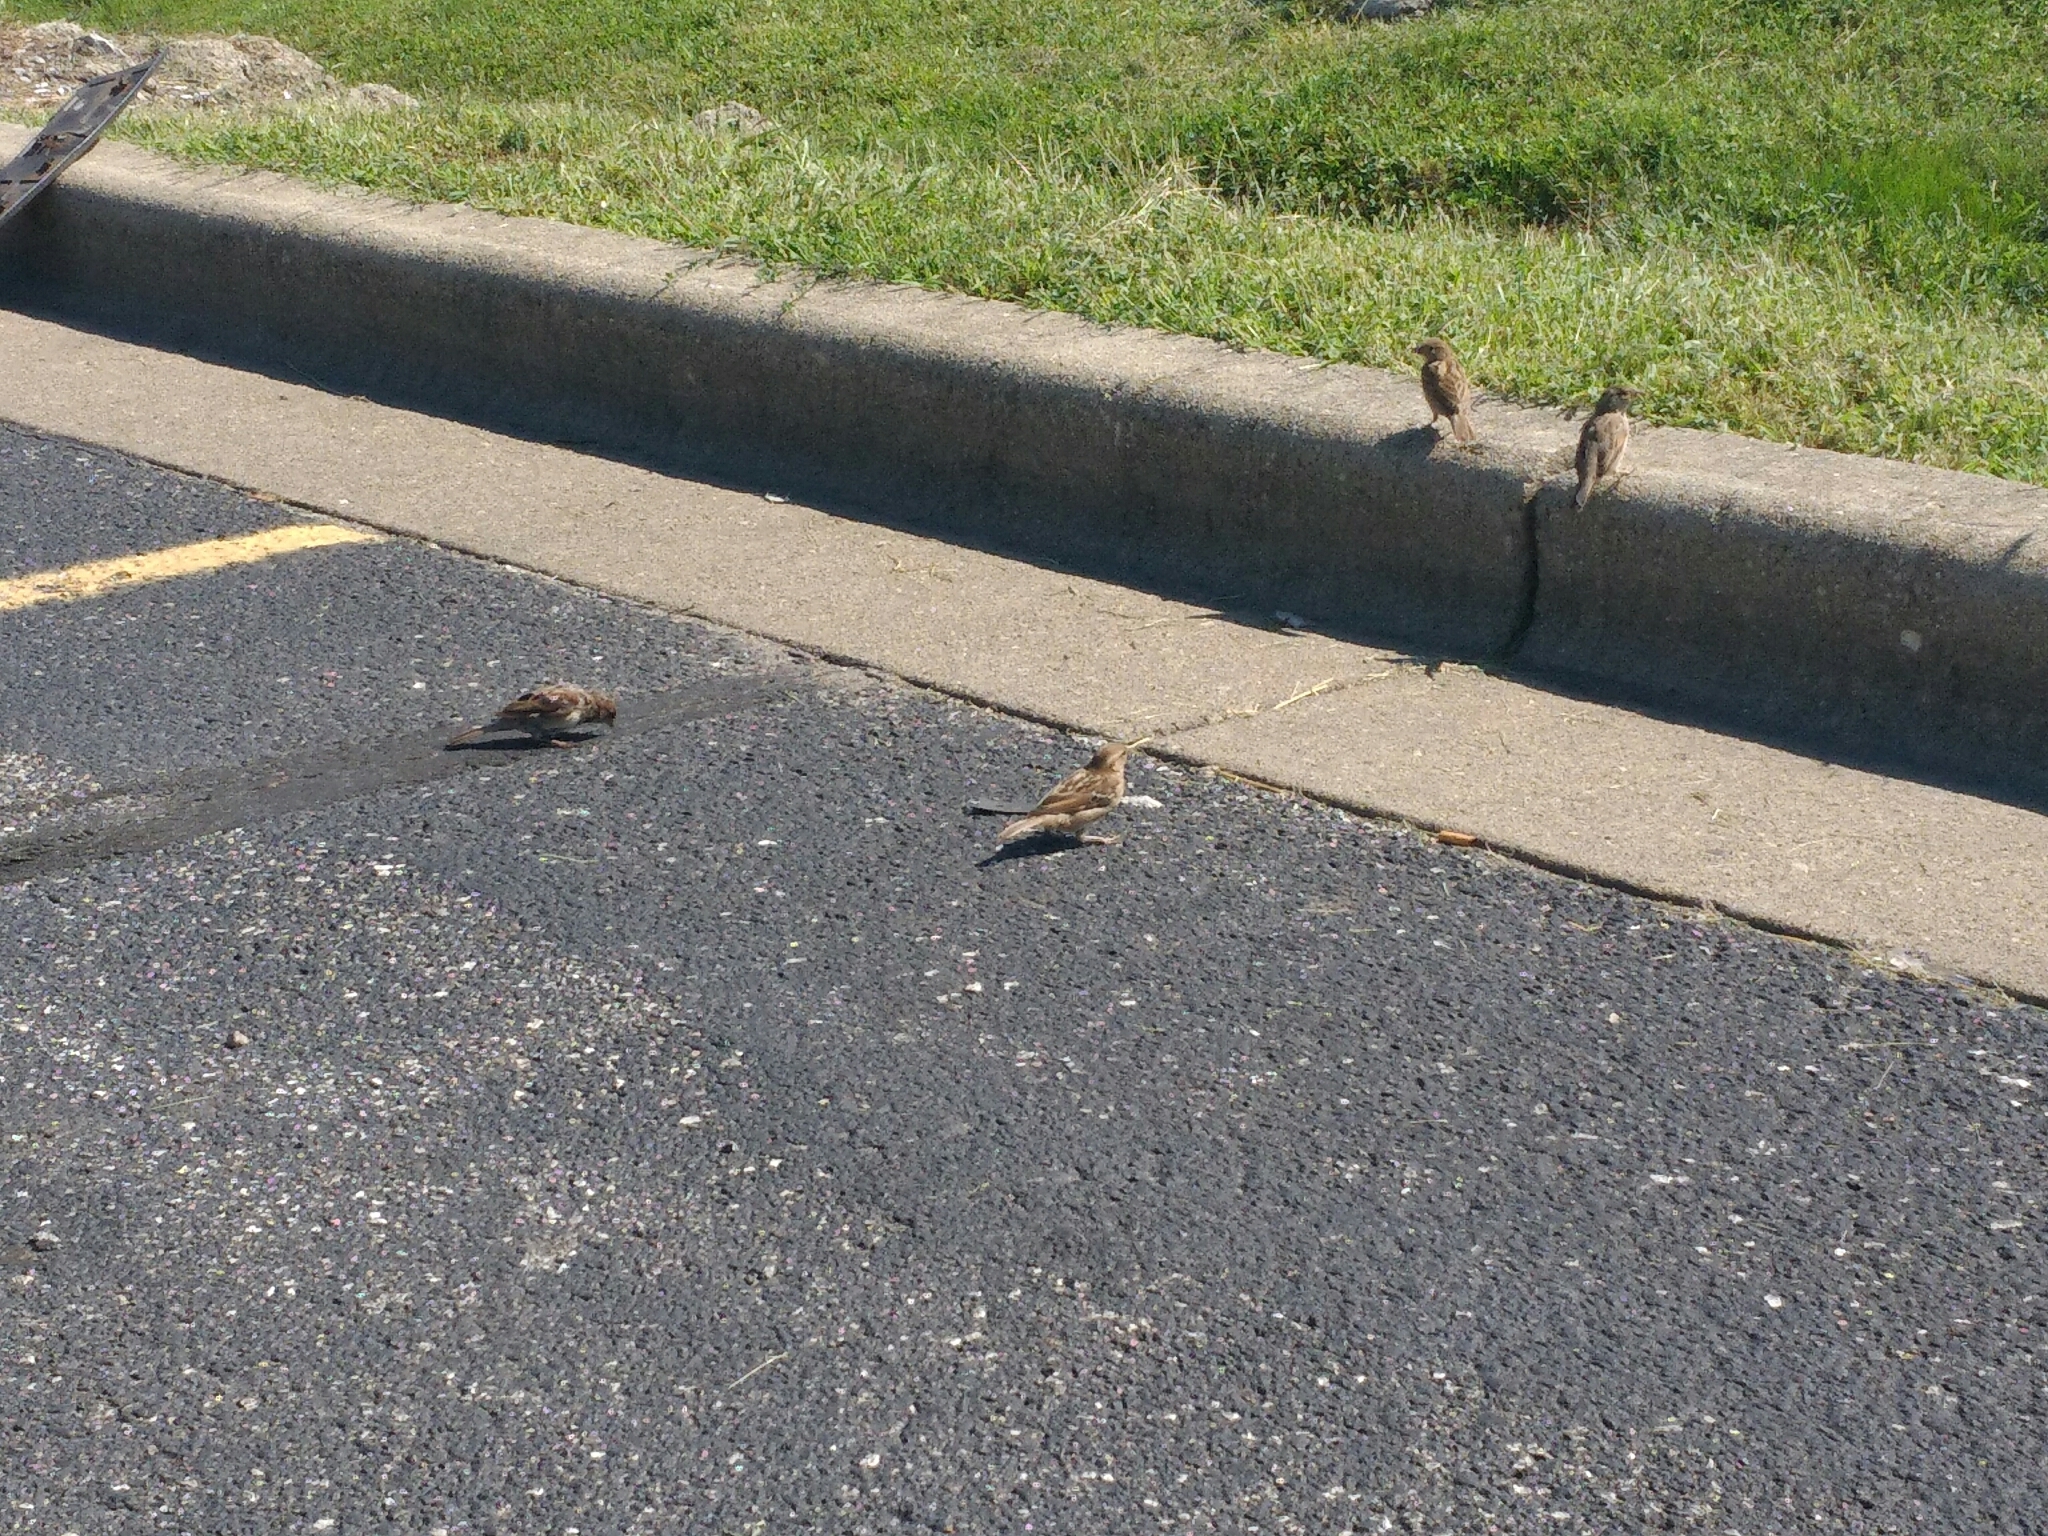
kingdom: Animalia
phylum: Chordata
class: Aves
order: Passeriformes
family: Passeridae
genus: Passer
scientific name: Passer domesticus
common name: House sparrow
